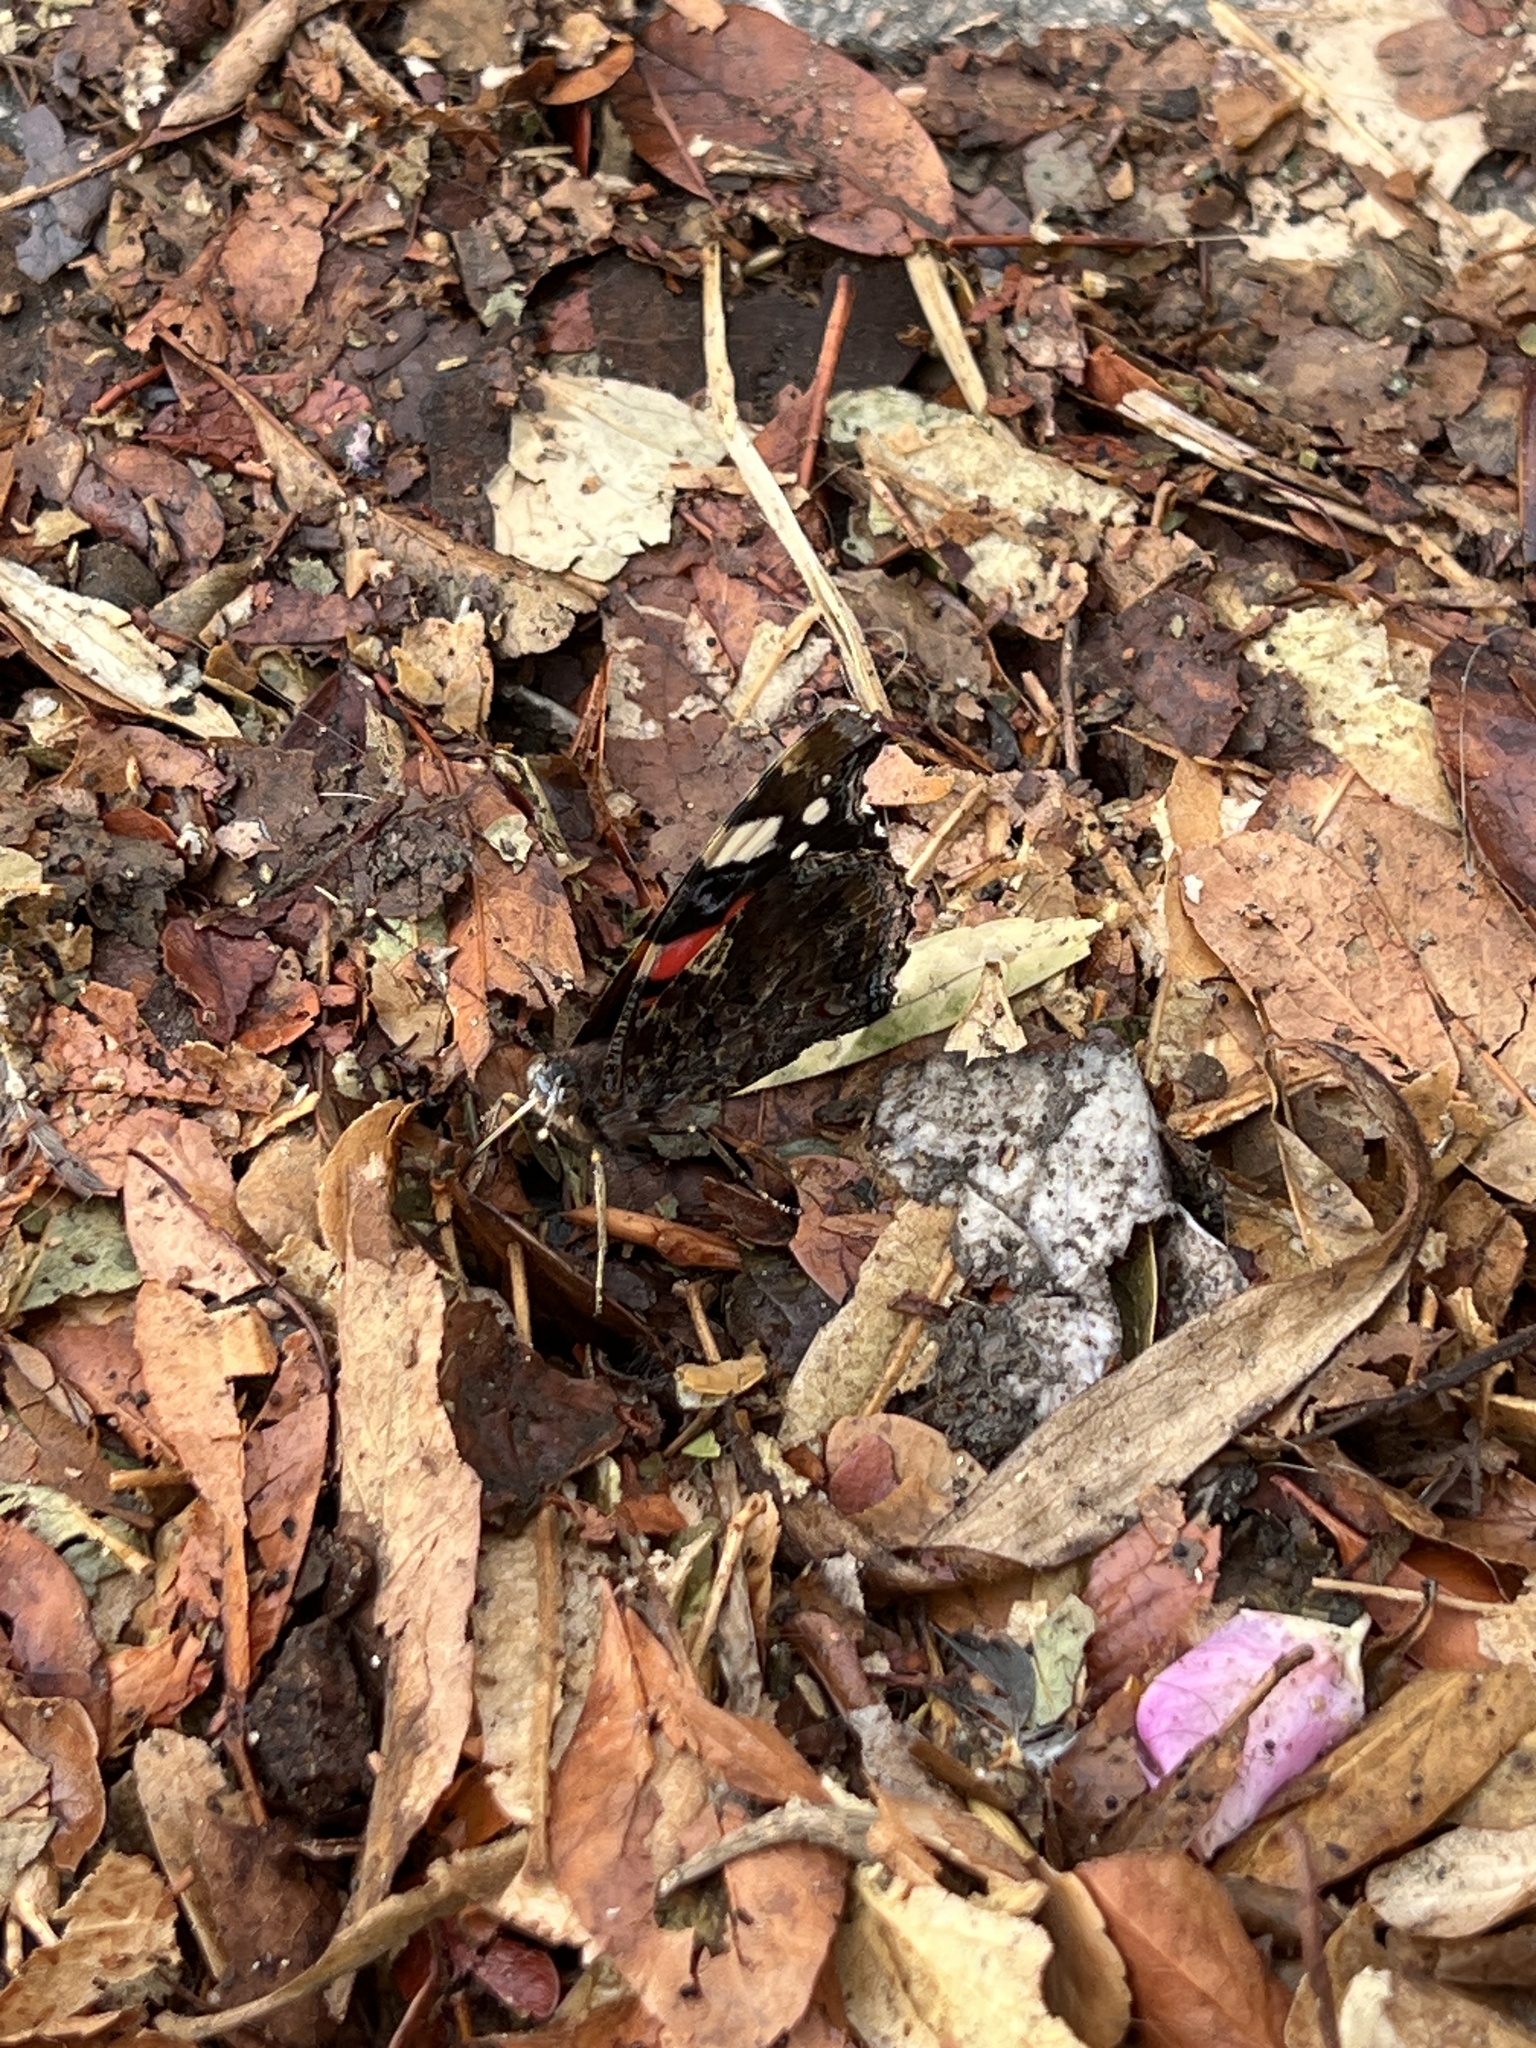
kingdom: Animalia
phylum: Arthropoda
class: Insecta
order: Lepidoptera
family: Nymphalidae
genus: Vanessa
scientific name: Vanessa atalanta
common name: Red admiral
